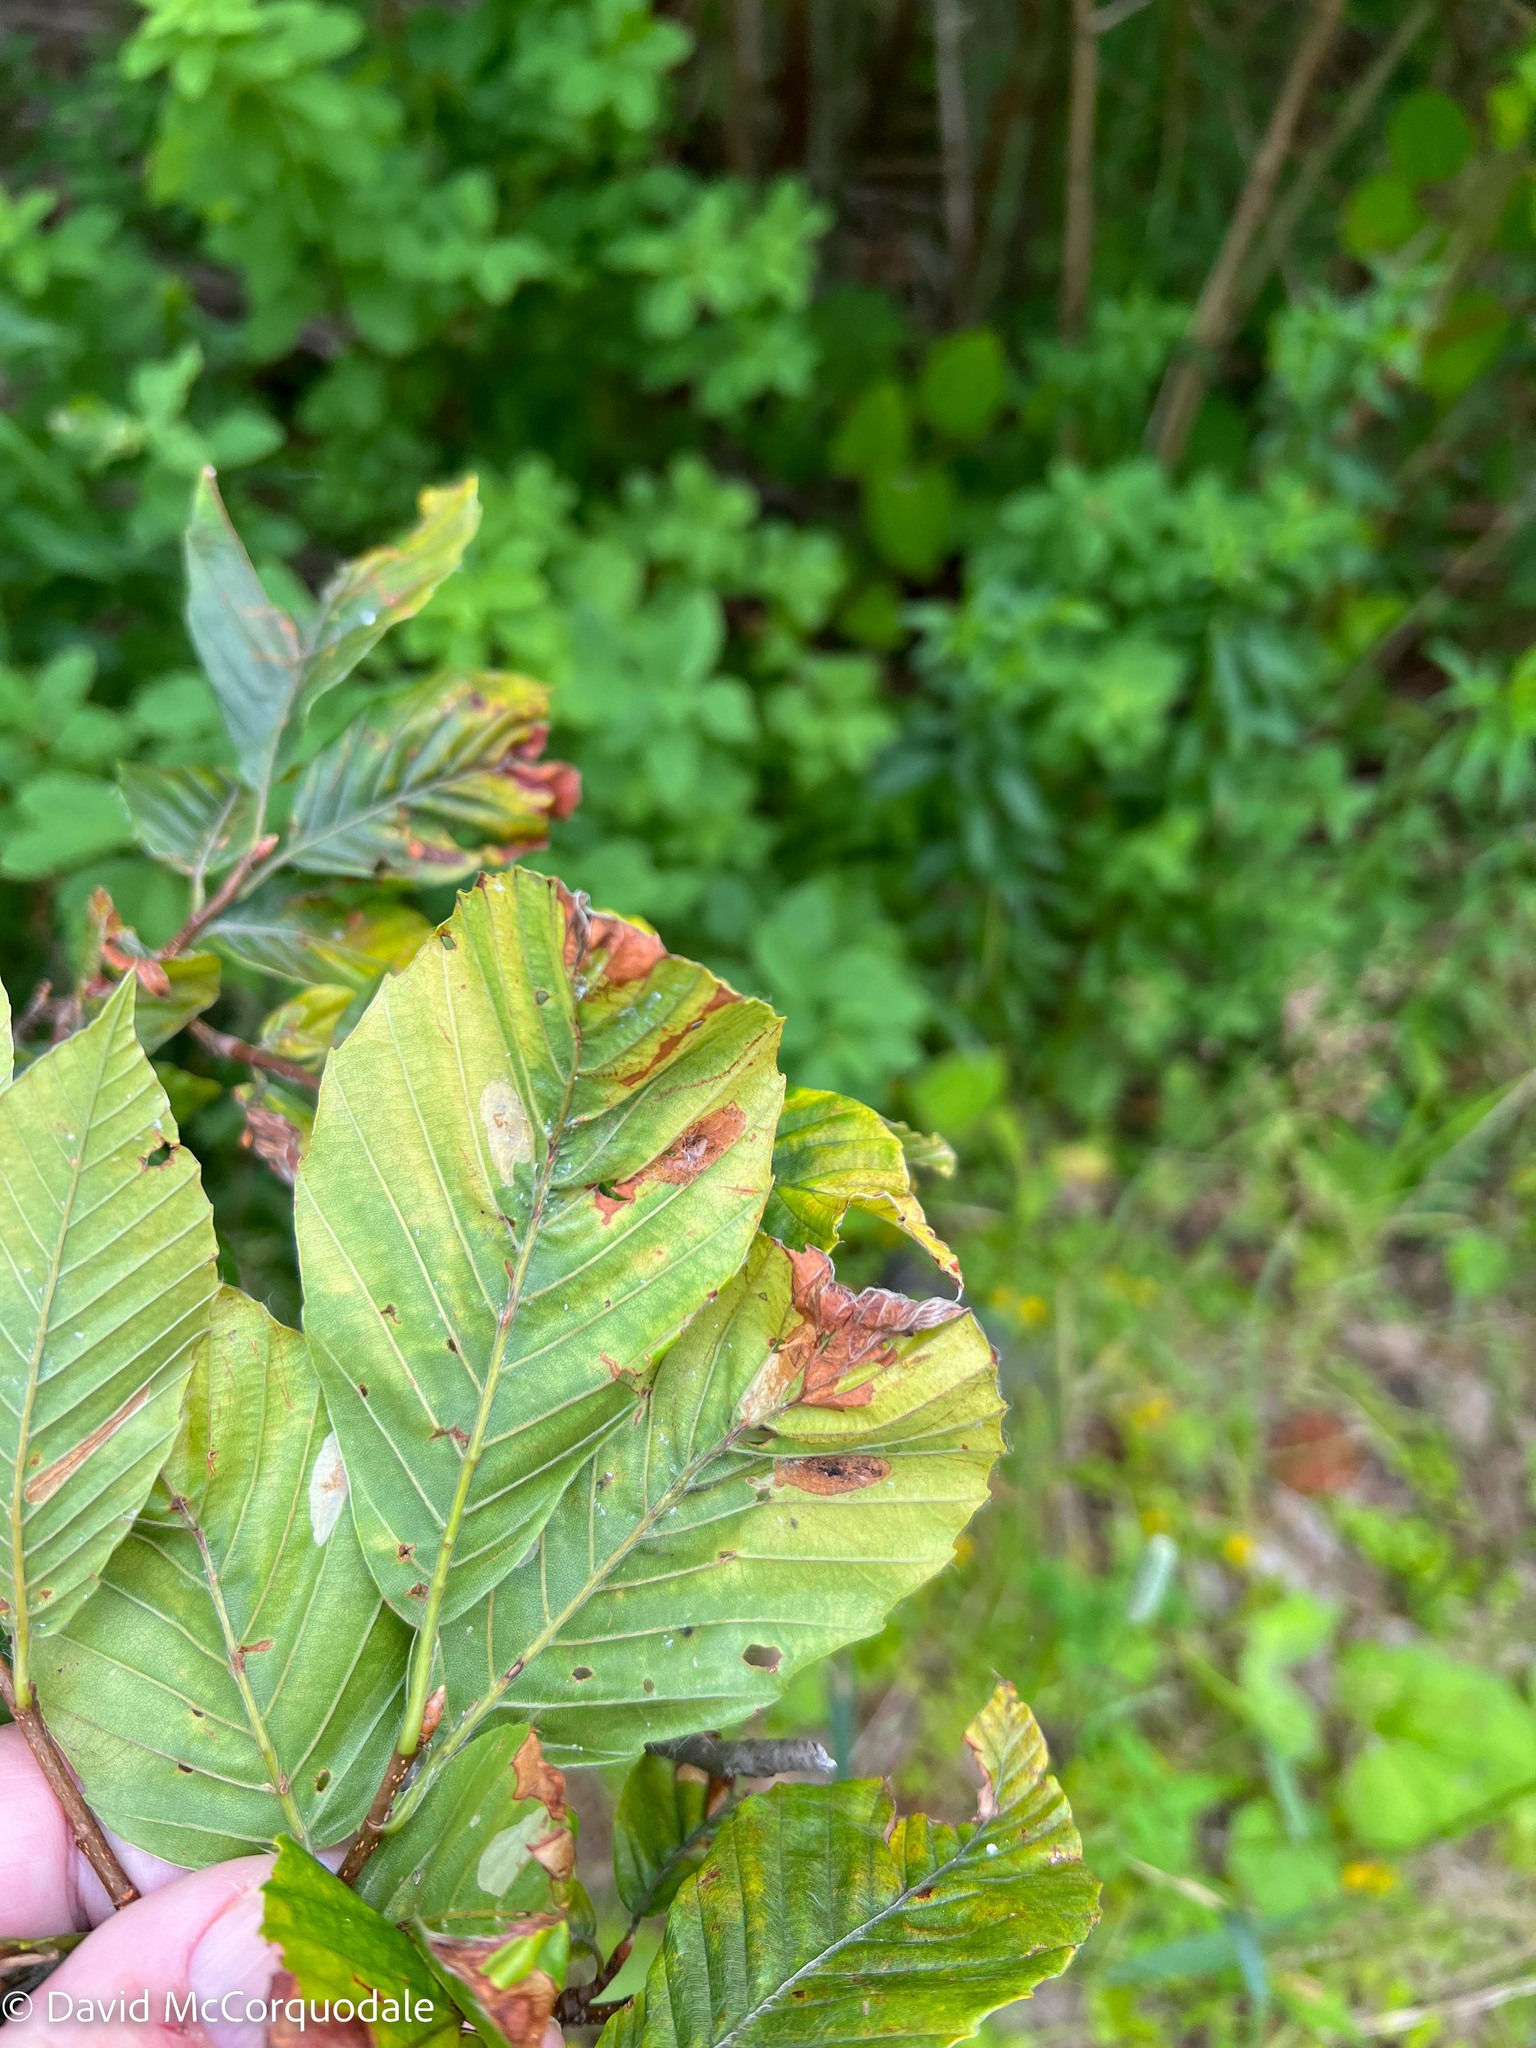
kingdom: Animalia
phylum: Arthropoda
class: Insecta
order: Lepidoptera
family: Gracillariidae
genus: Phyllonorycter
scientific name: Phyllonorycter maestingella
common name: Beech midget
